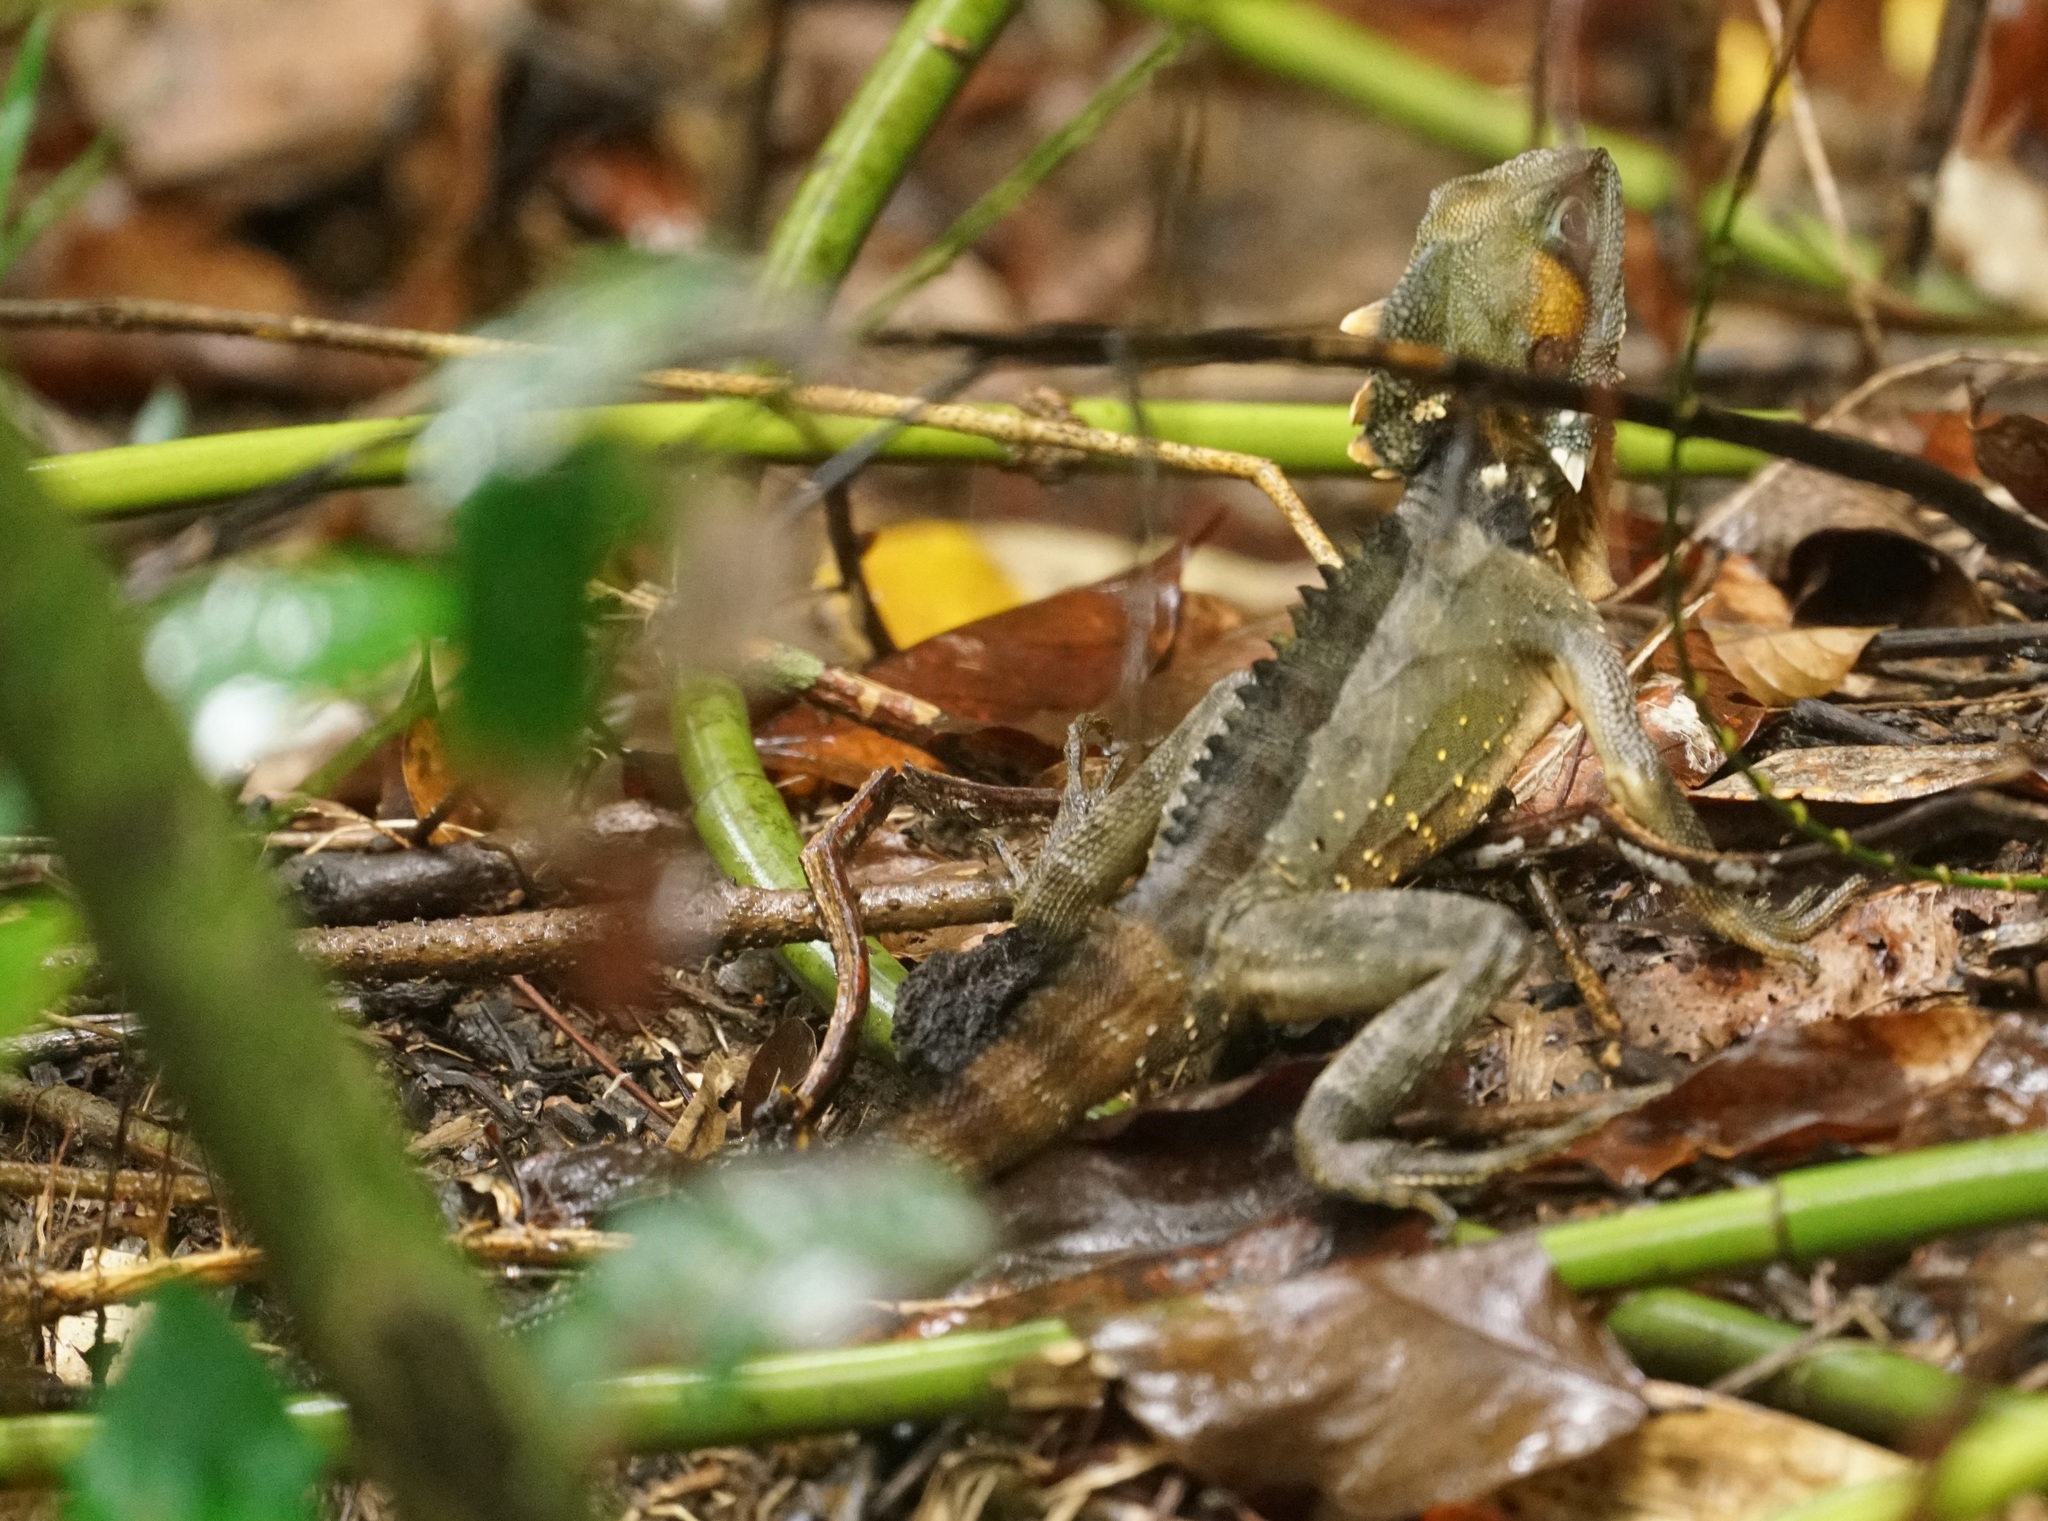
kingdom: Animalia
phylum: Chordata
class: Squamata
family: Agamidae
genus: Lophosaurus
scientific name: Lophosaurus boydii
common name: Boyd's forest dragon
